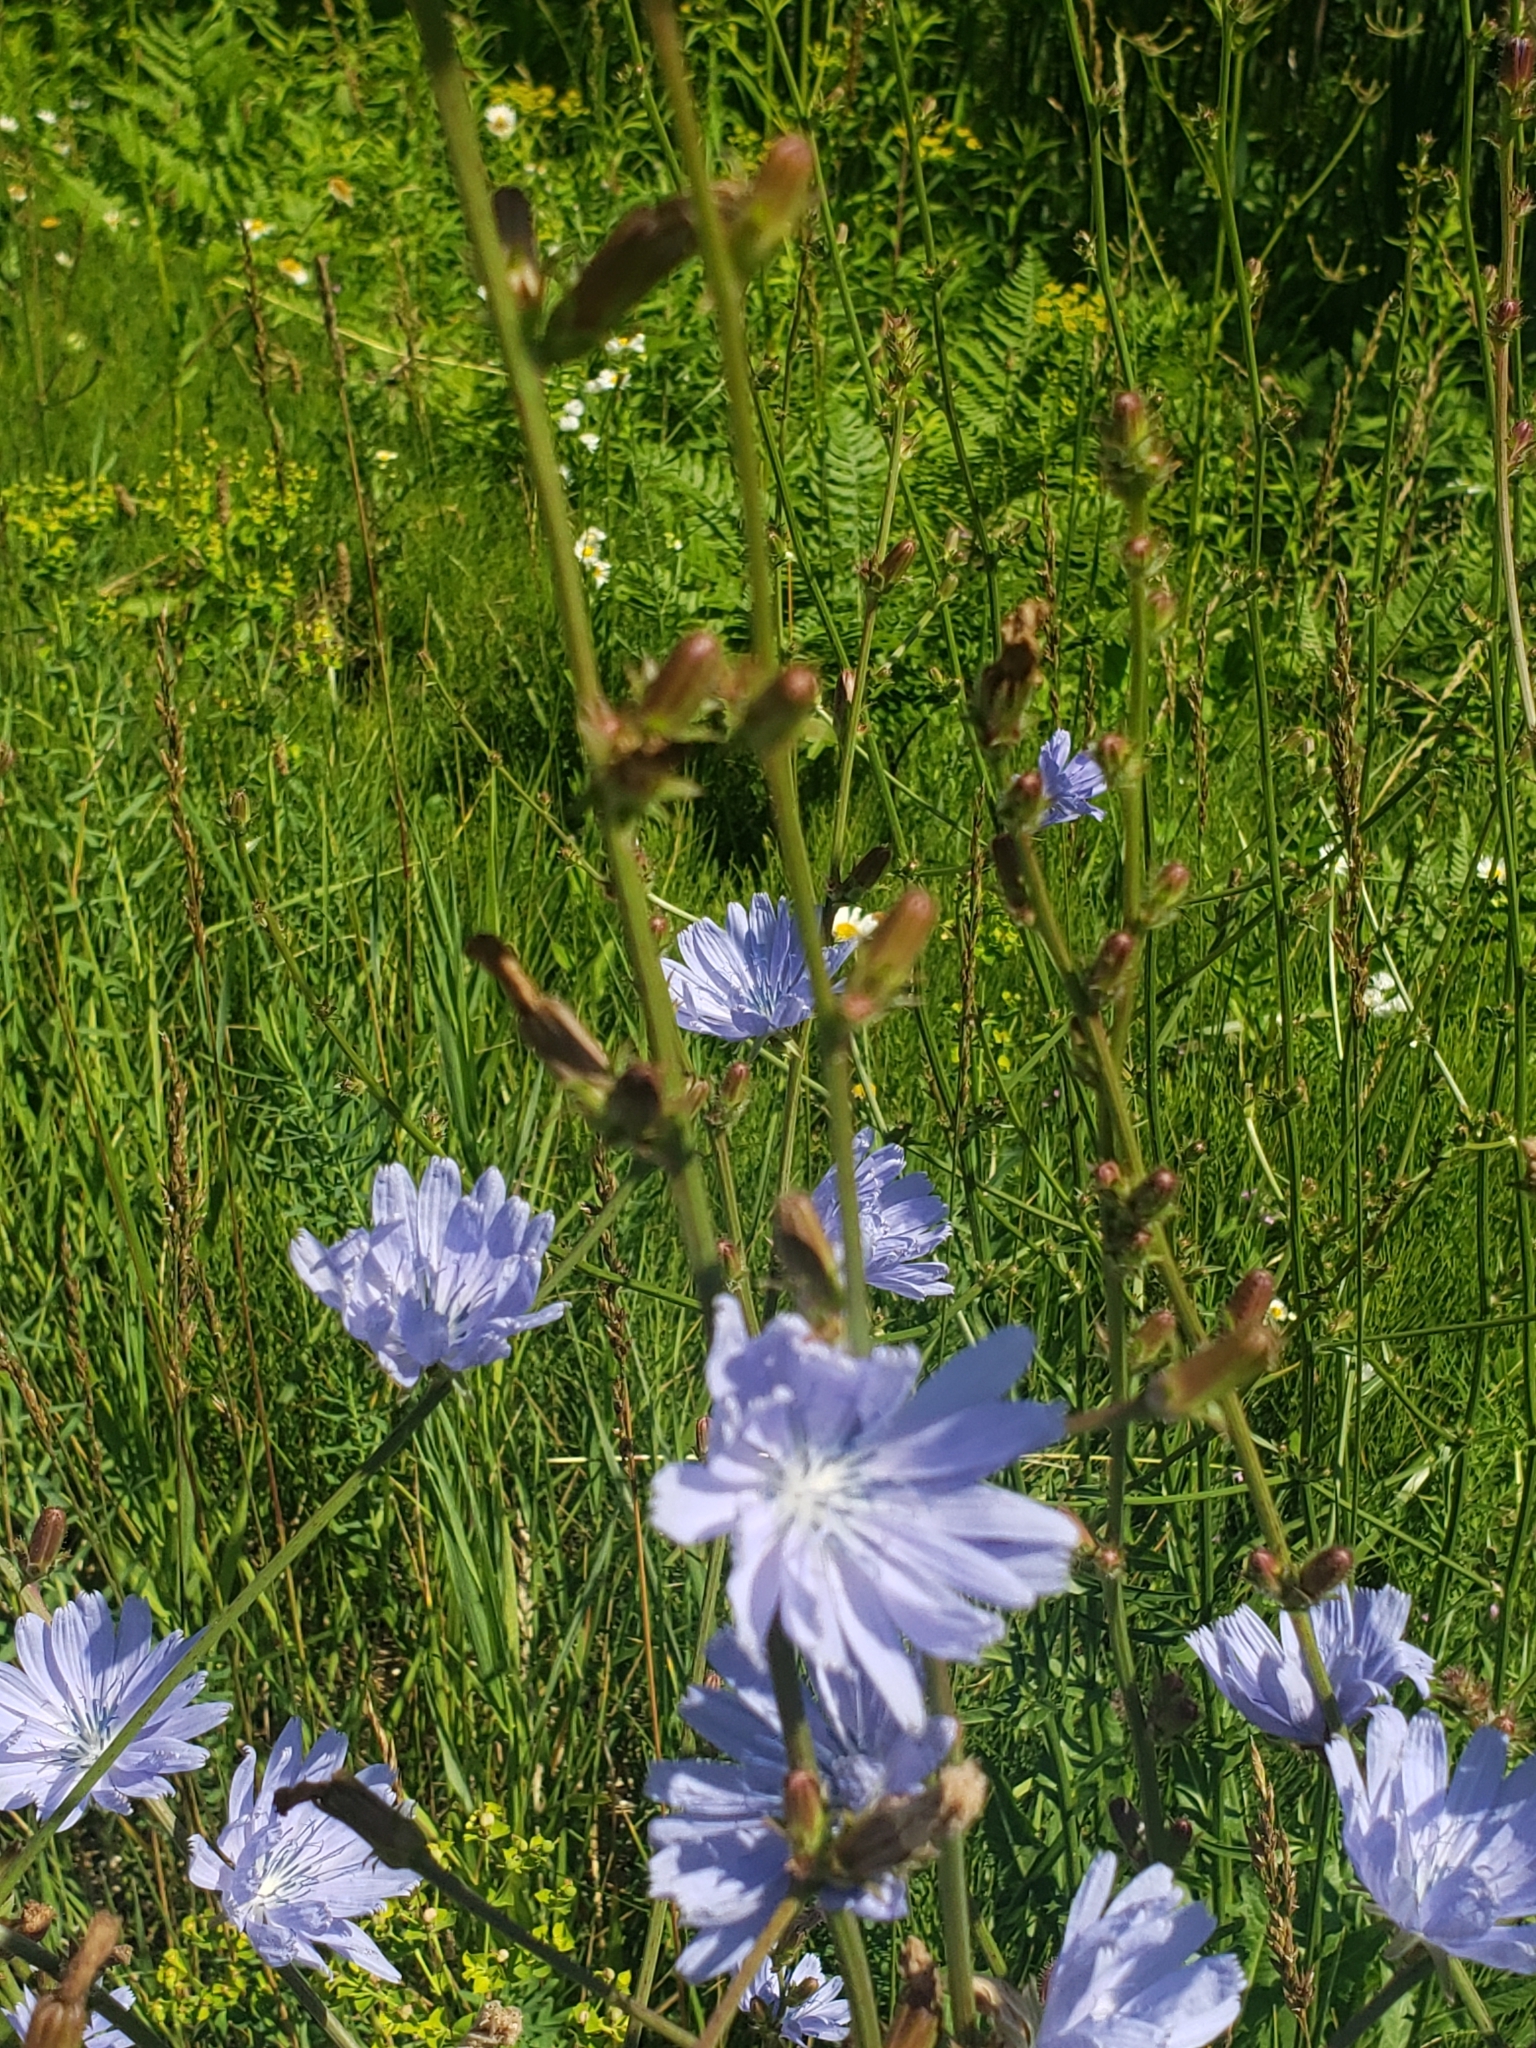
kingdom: Plantae
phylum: Tracheophyta
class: Magnoliopsida
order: Asterales
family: Asteraceae
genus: Cichorium
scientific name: Cichorium intybus
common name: Chicory
